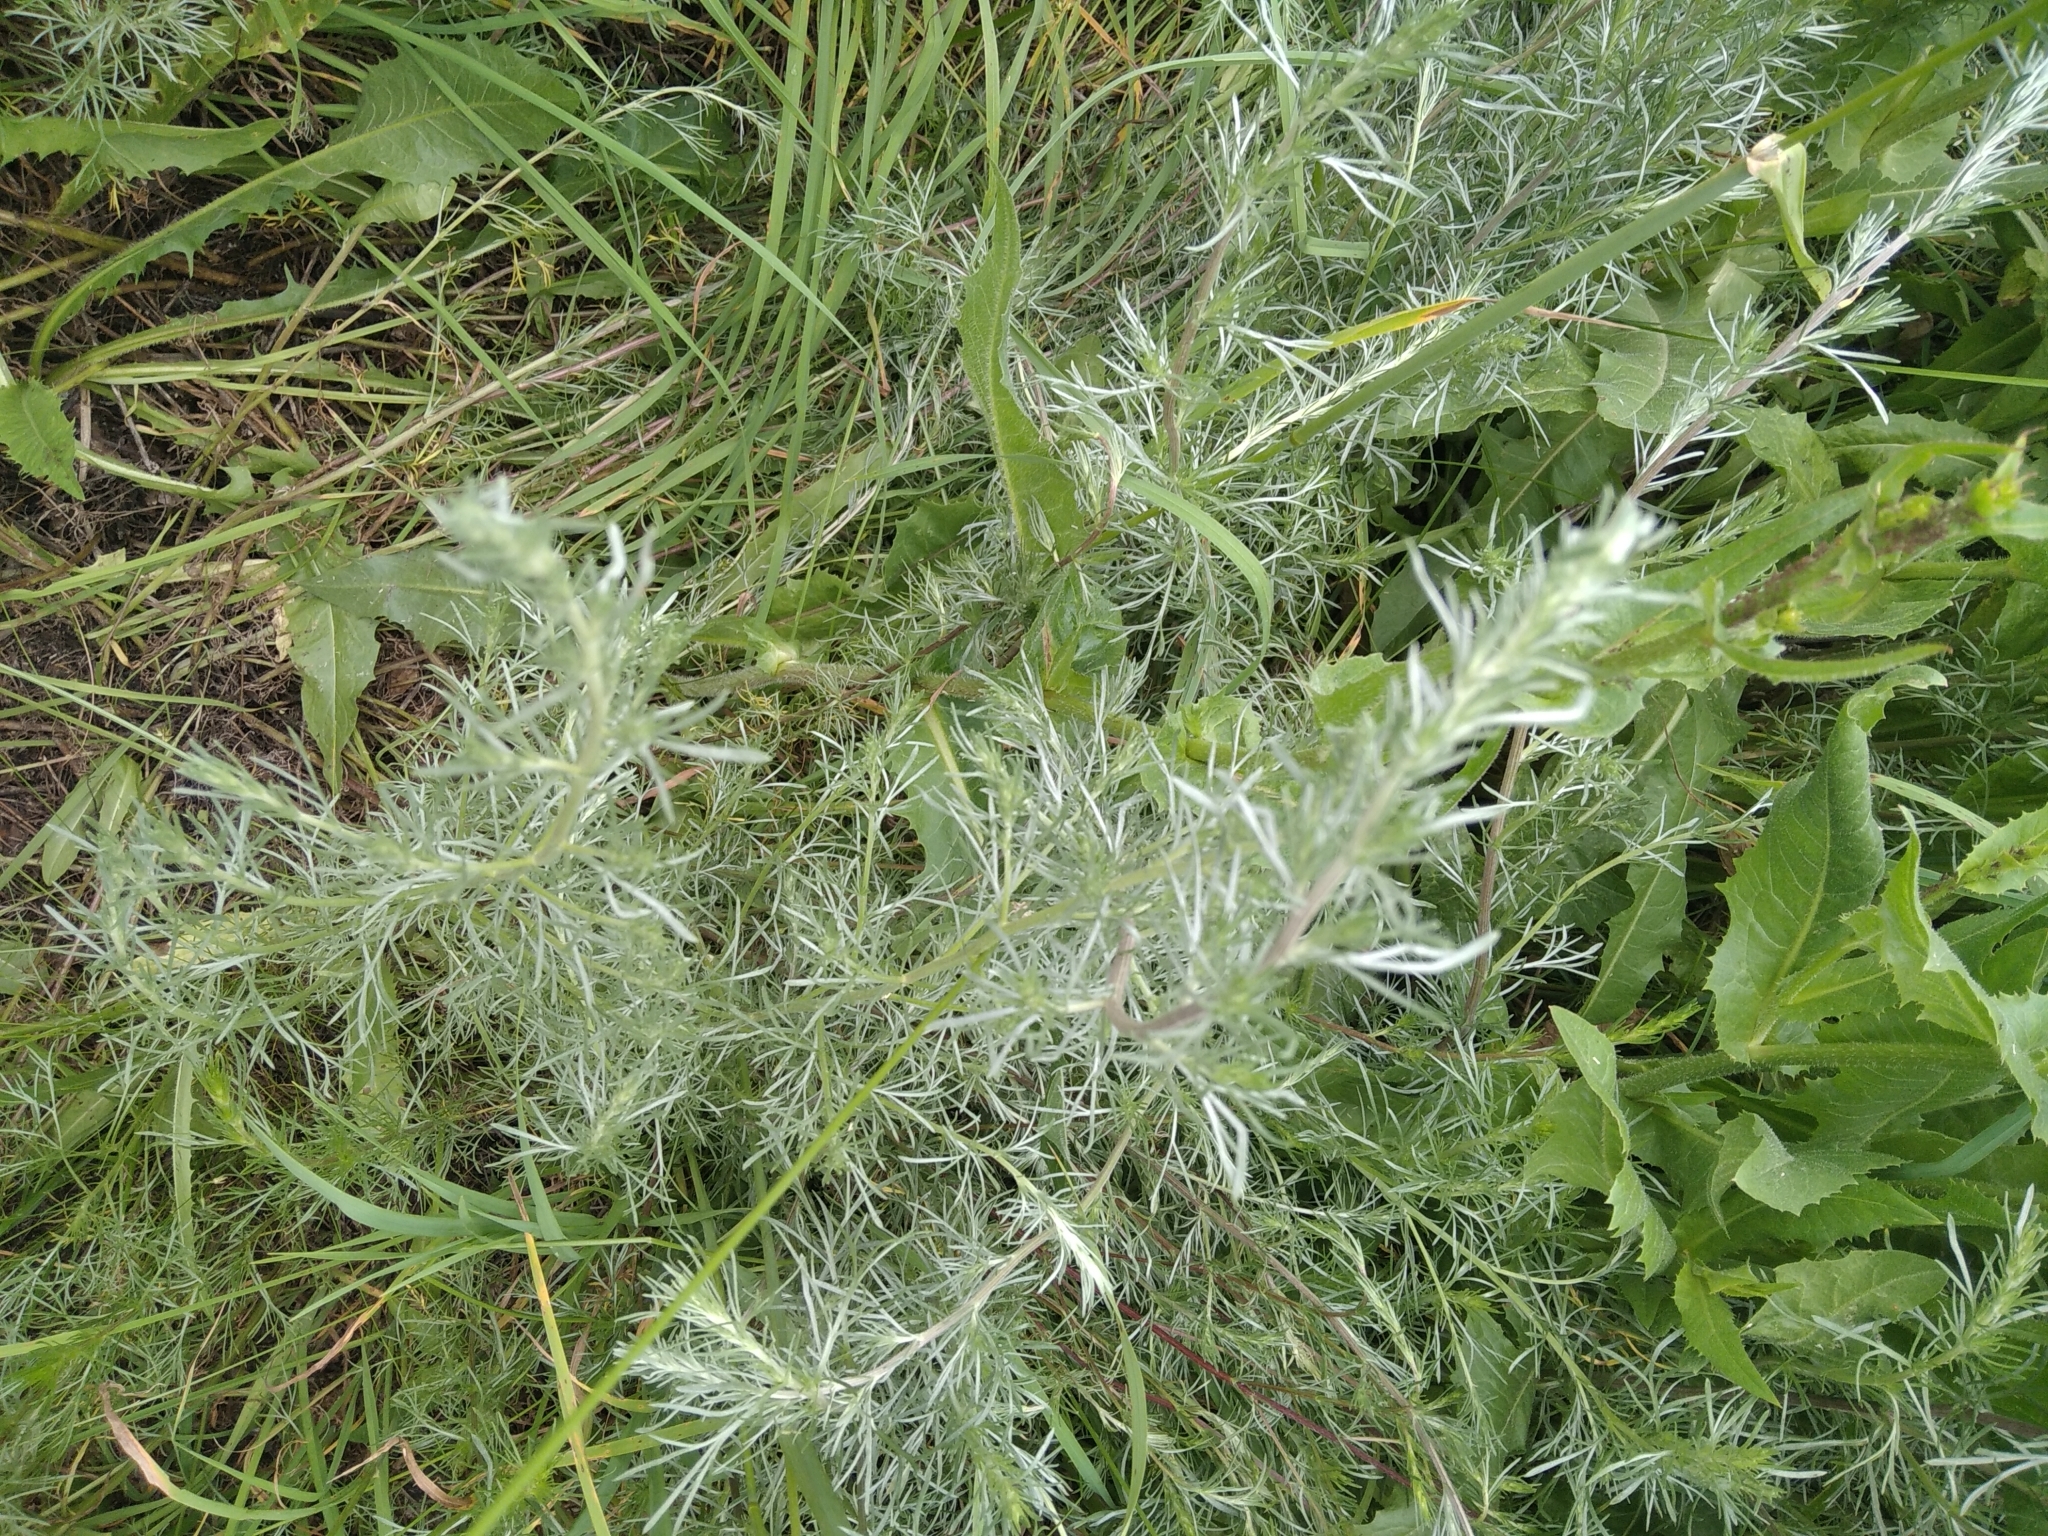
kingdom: Plantae
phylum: Tracheophyta
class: Magnoliopsida
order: Asterales
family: Asteraceae
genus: Artemisia
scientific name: Artemisia campestris
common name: Field wormwood
